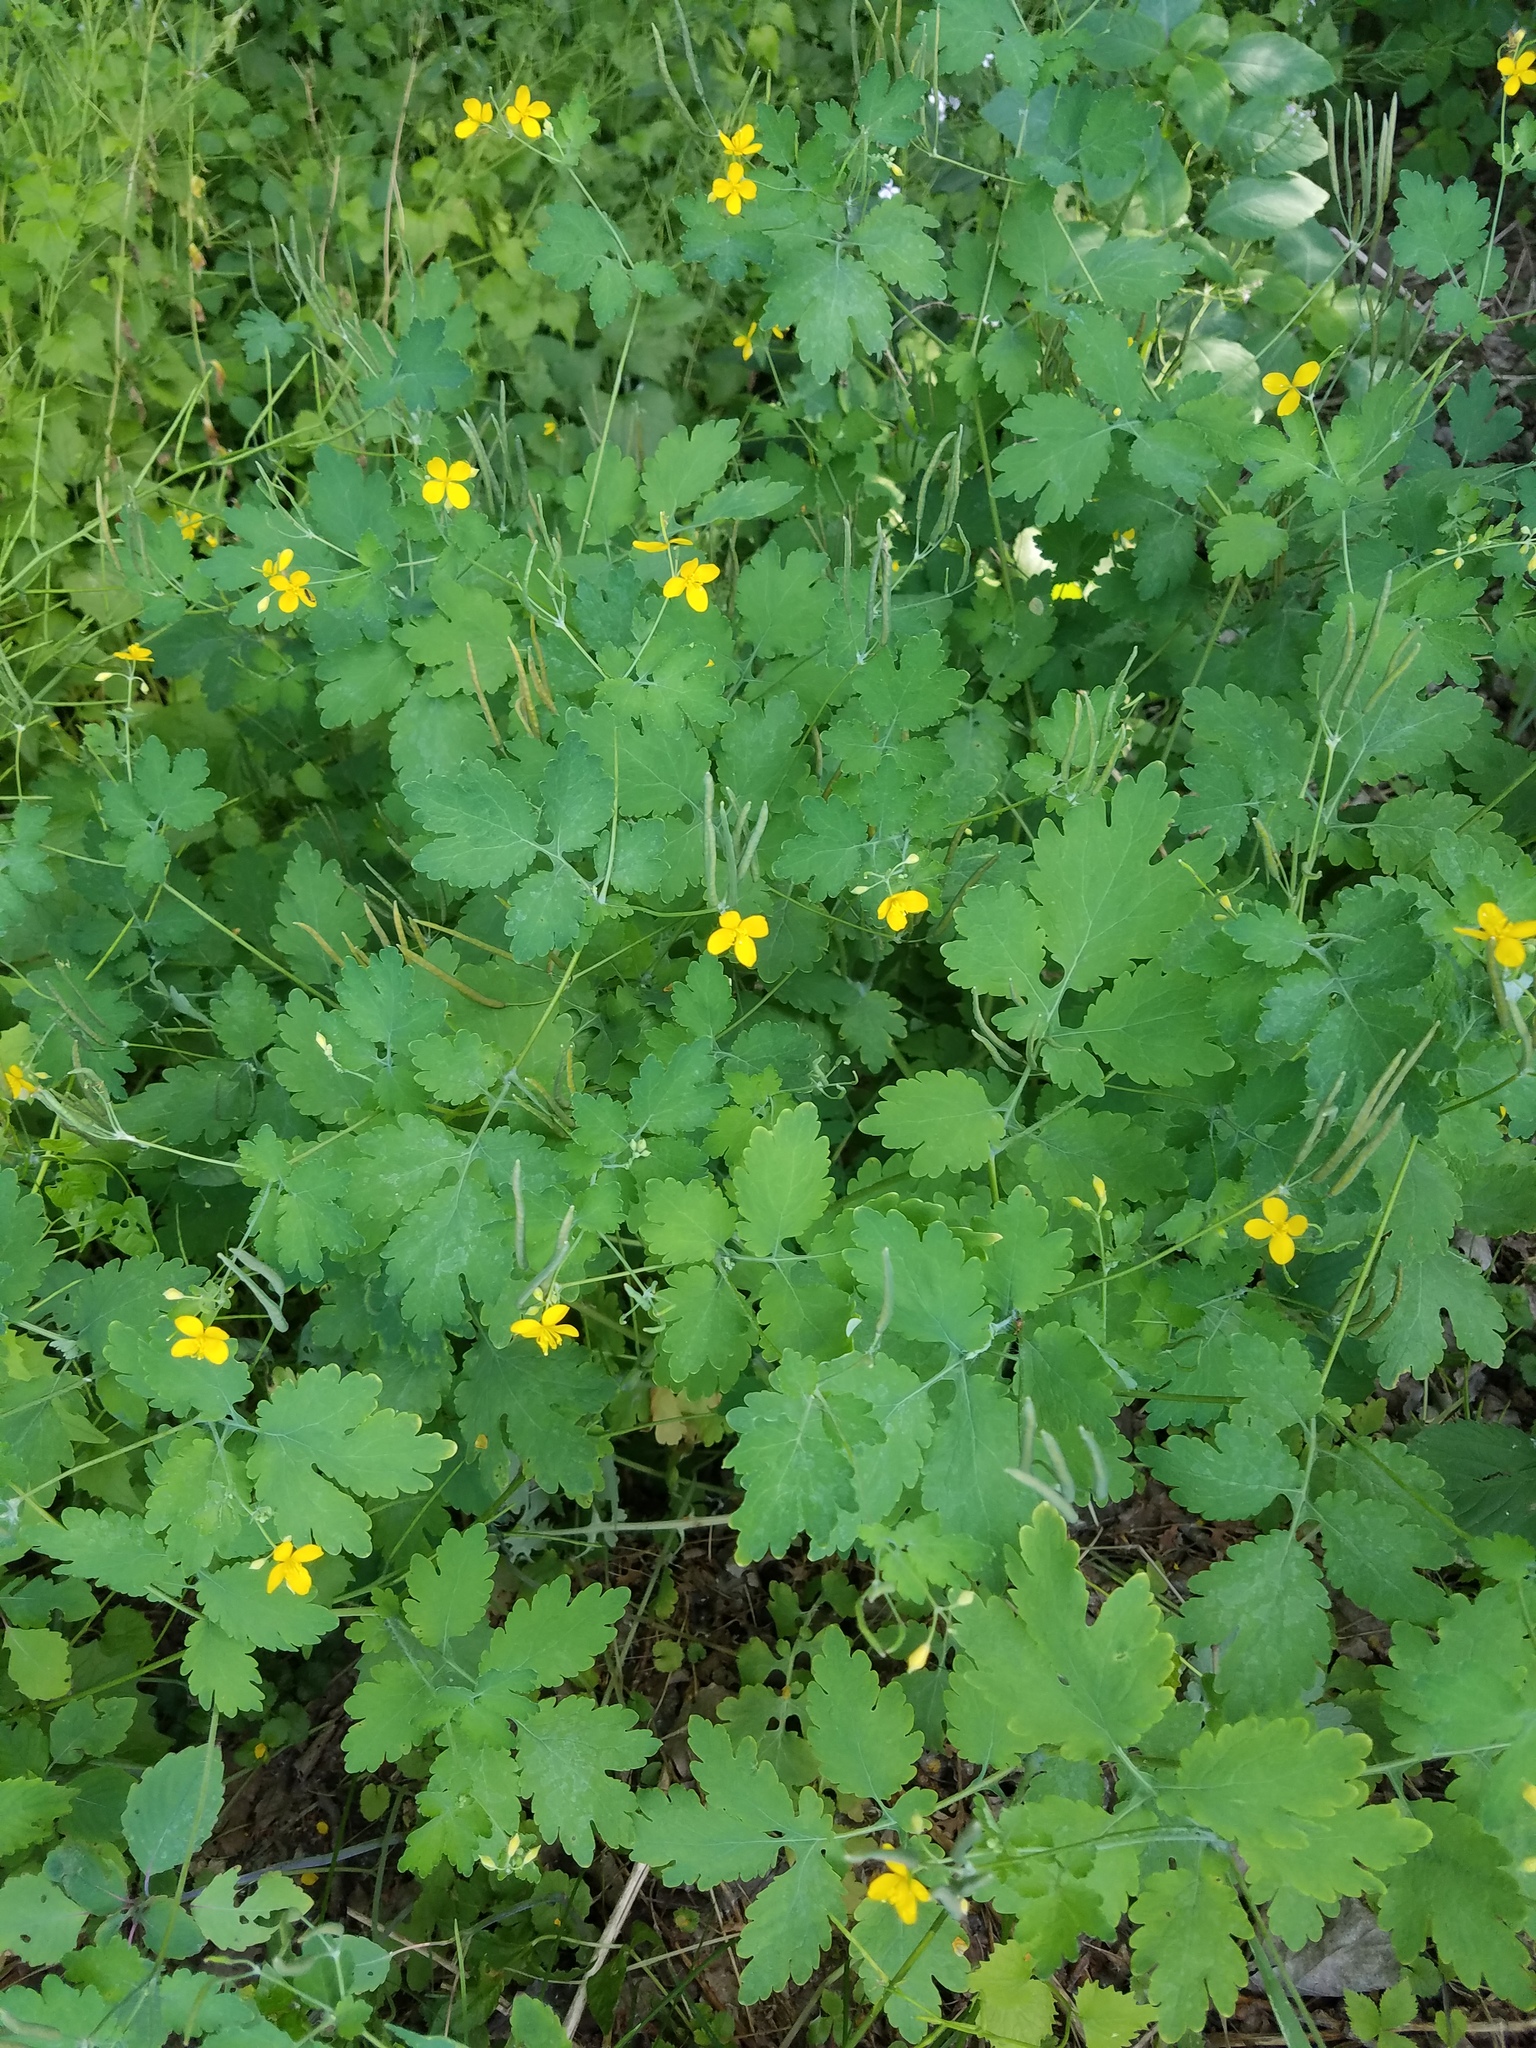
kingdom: Plantae
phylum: Tracheophyta
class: Magnoliopsida
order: Ranunculales
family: Papaveraceae
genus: Chelidonium
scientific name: Chelidonium majus
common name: Greater celandine
